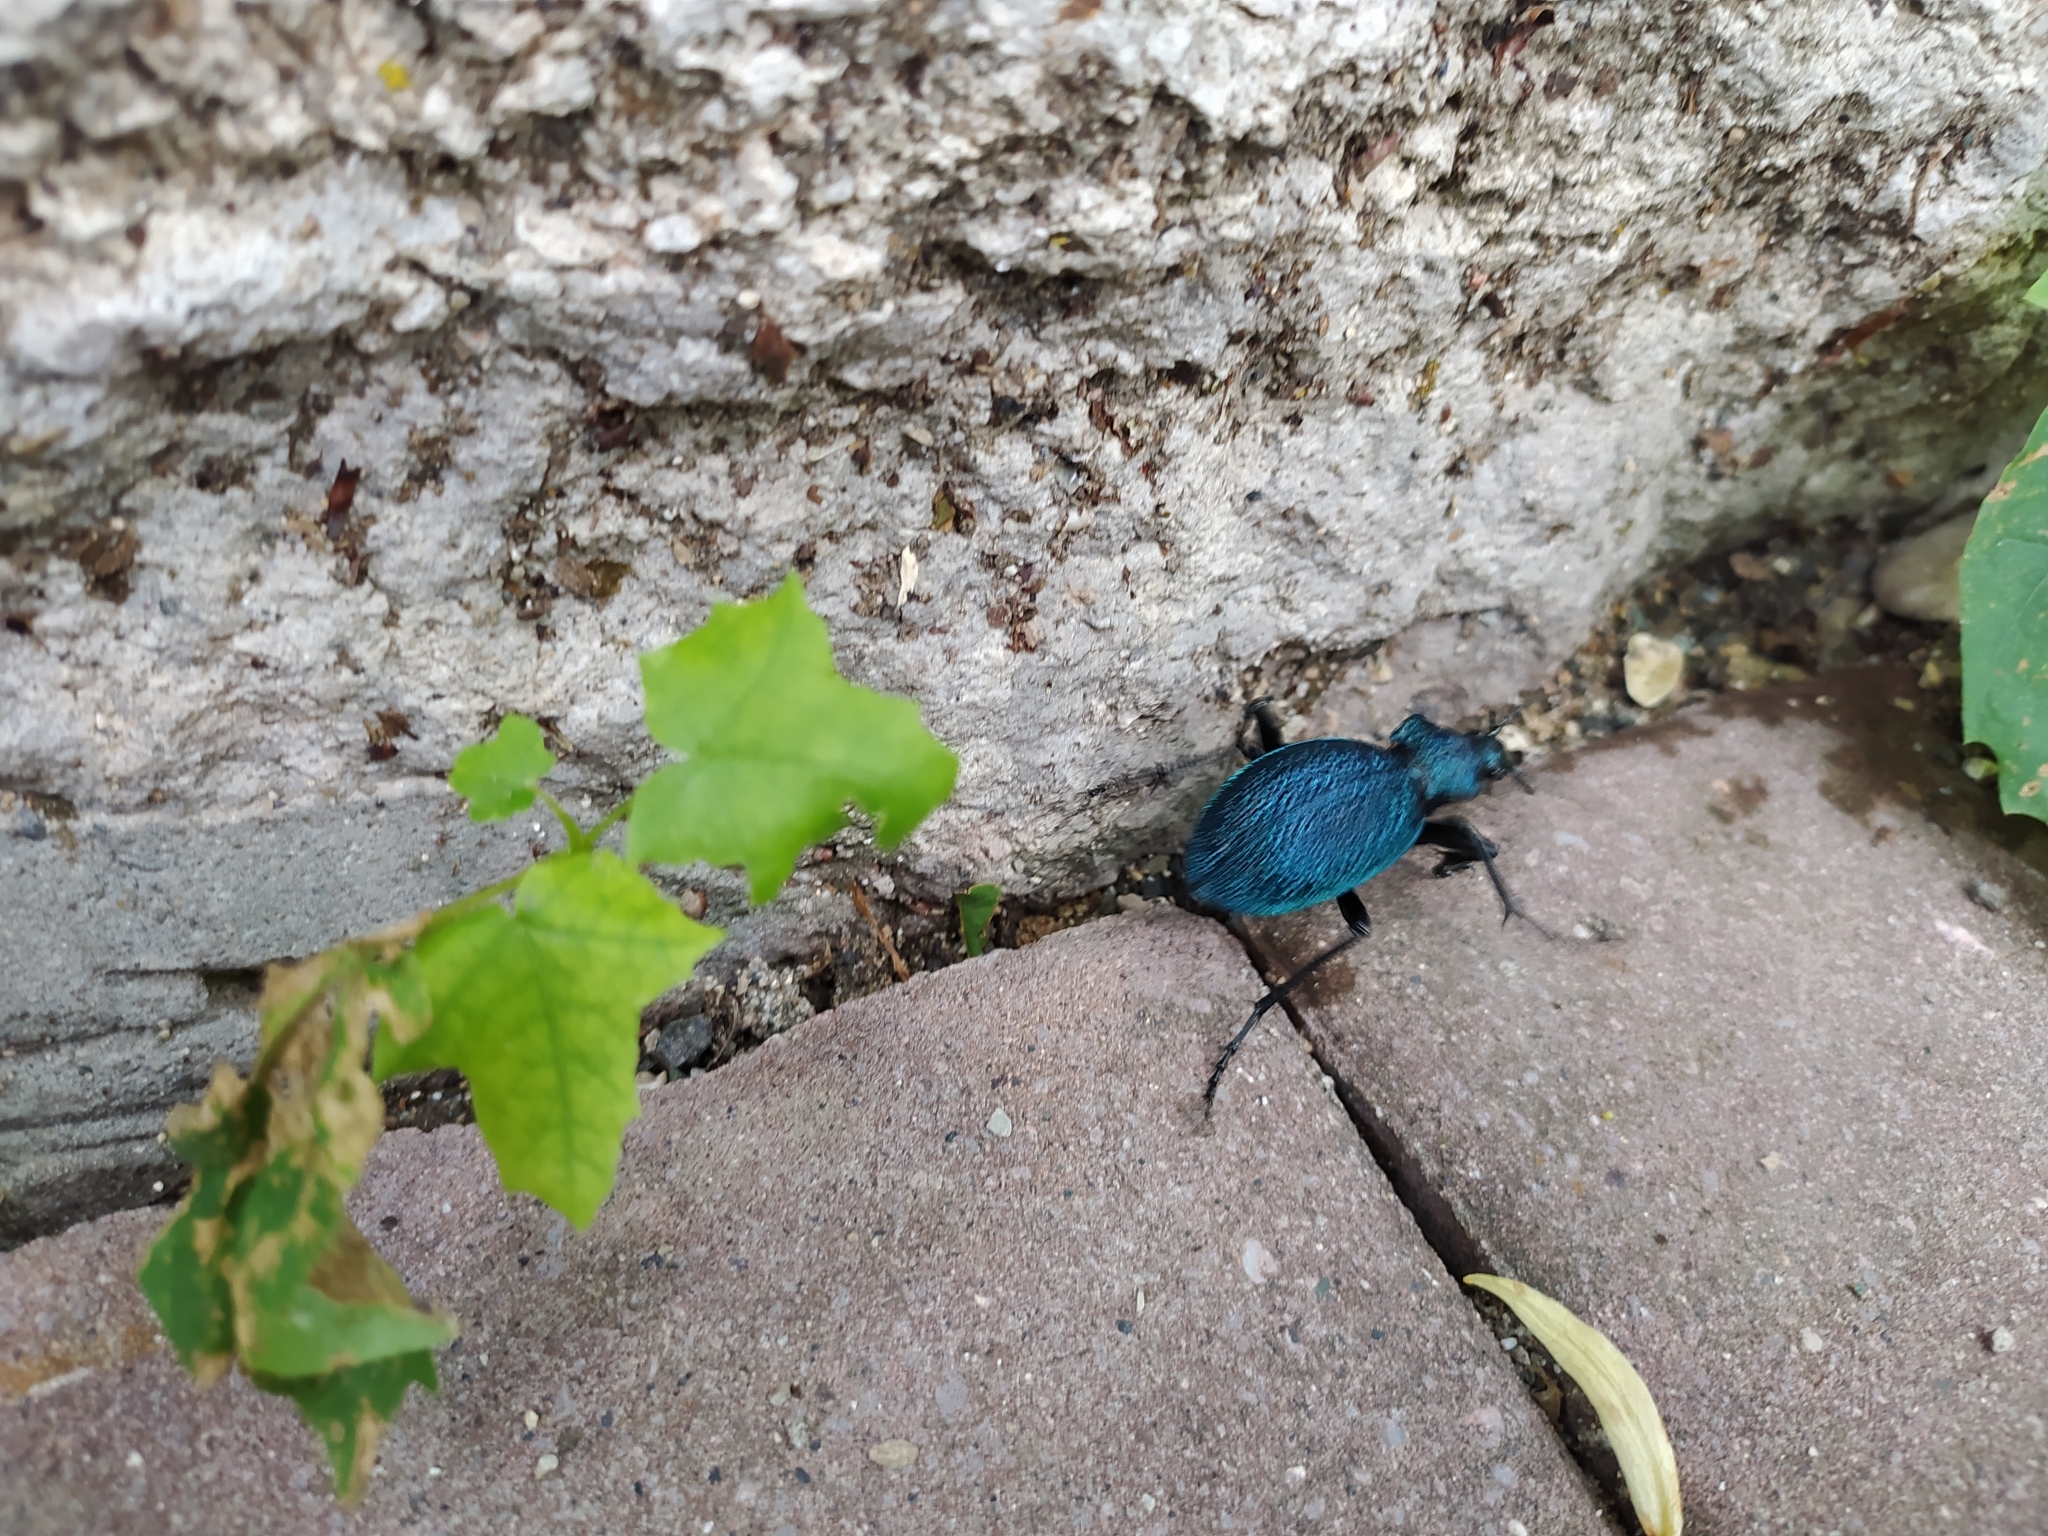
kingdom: Animalia
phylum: Arthropoda
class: Insecta
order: Coleoptera
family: Carabidae
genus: Carabus
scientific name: Carabus scabrosus
